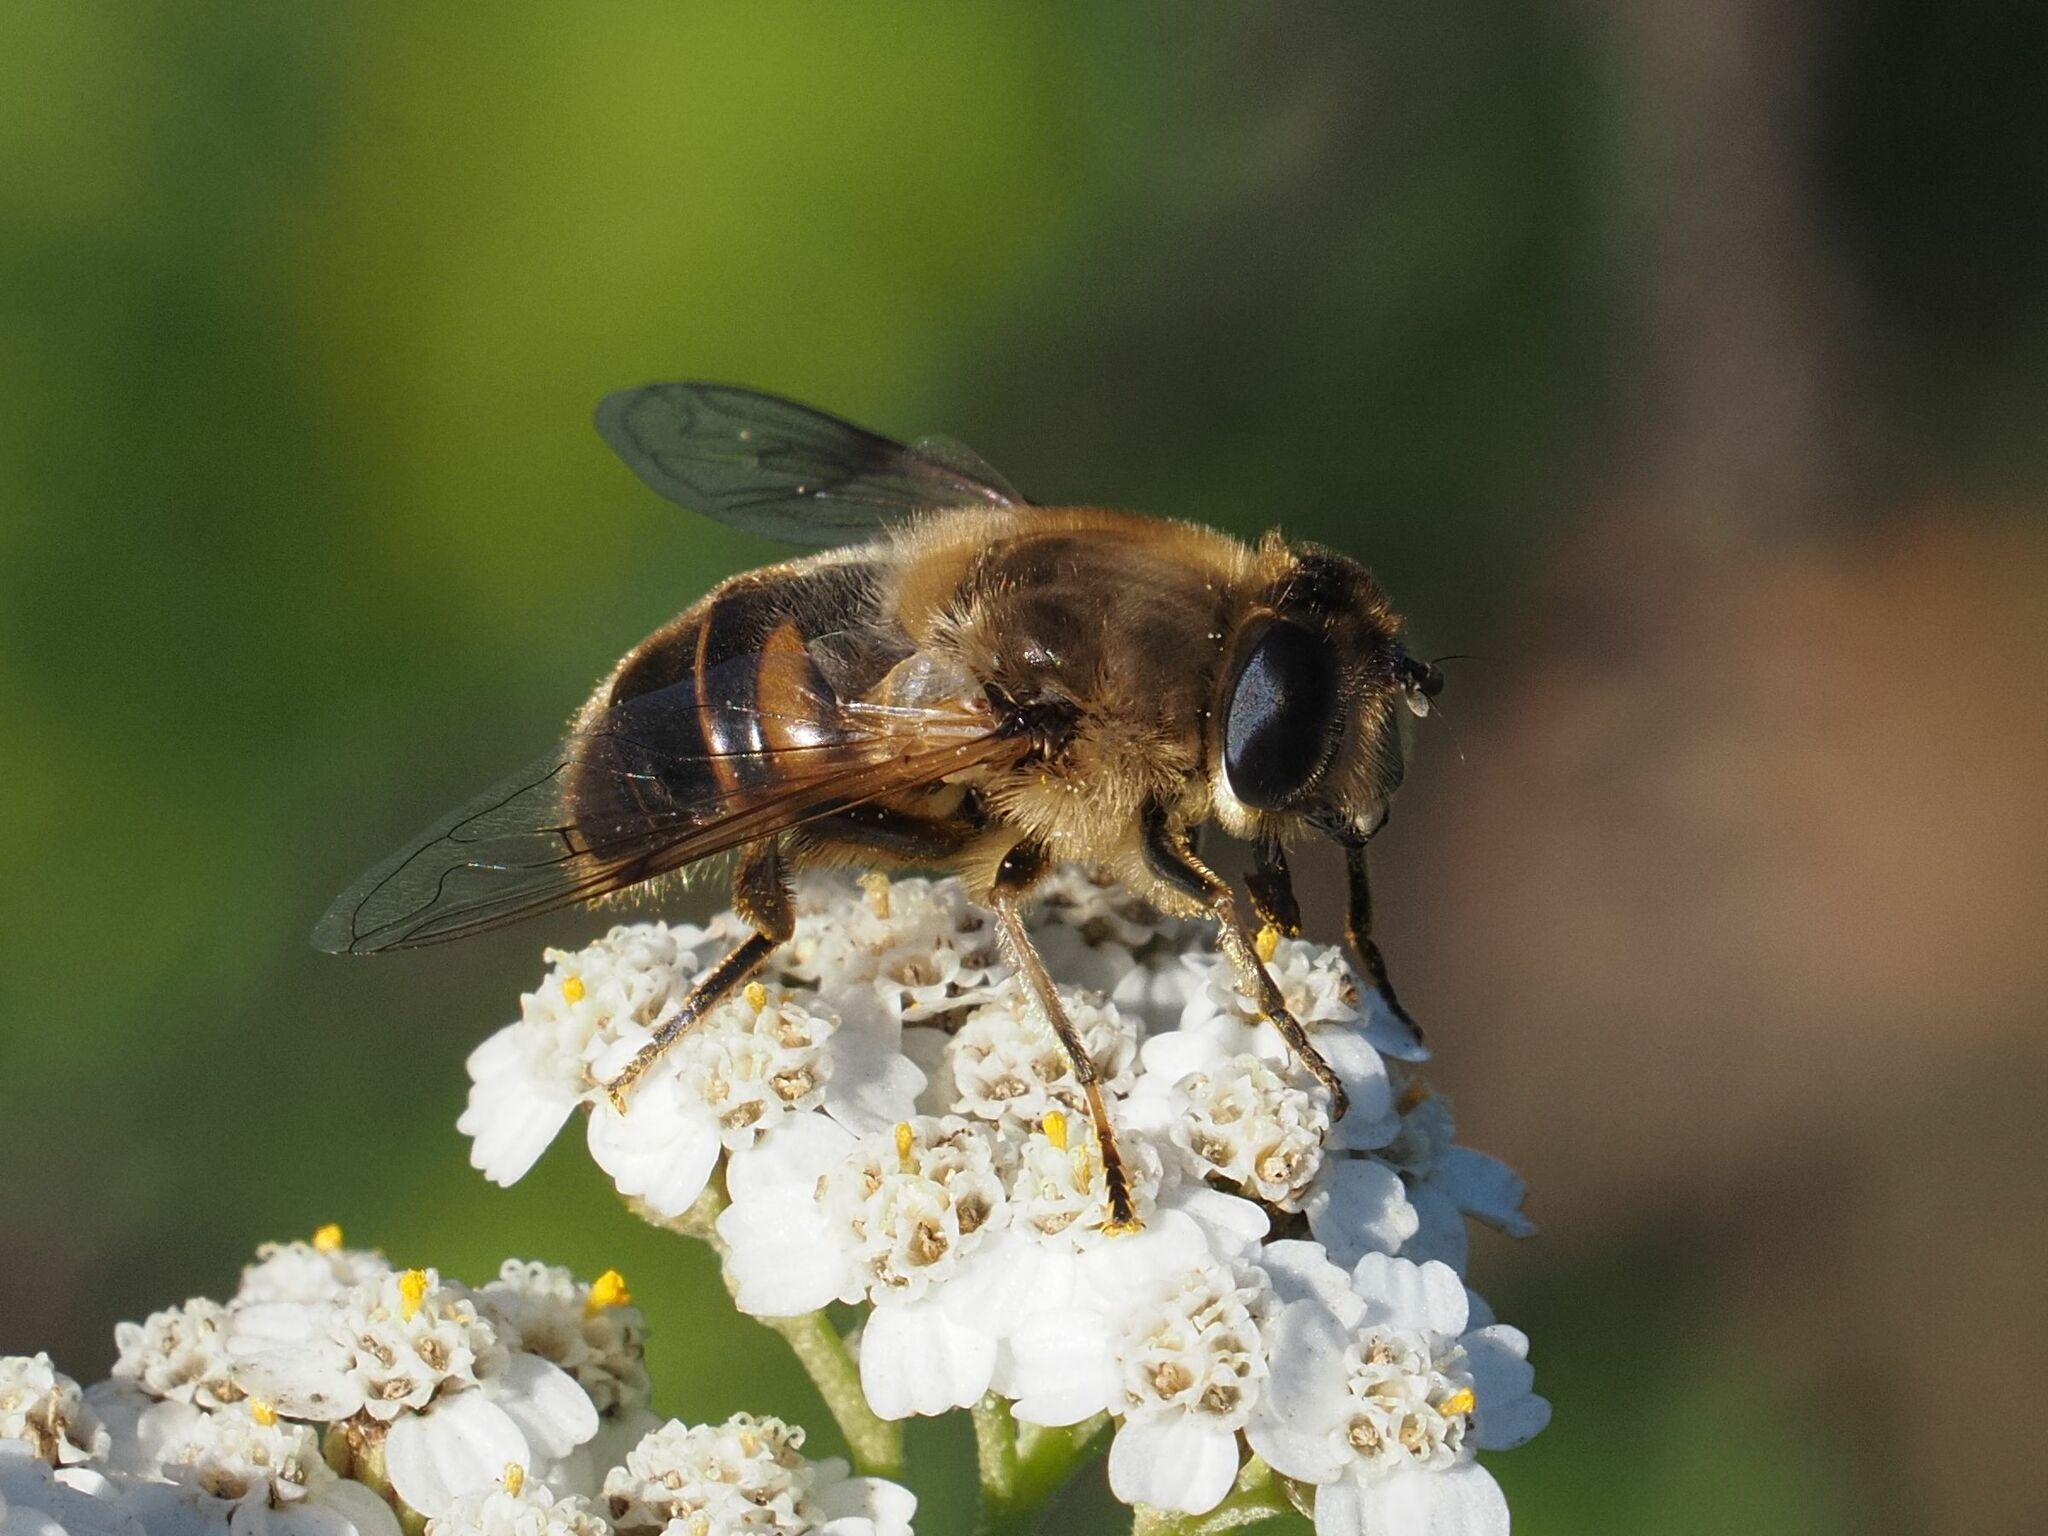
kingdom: Animalia
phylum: Arthropoda
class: Insecta
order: Diptera
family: Syrphidae
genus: Eristalis
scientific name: Eristalis tenax
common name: Drone fly
